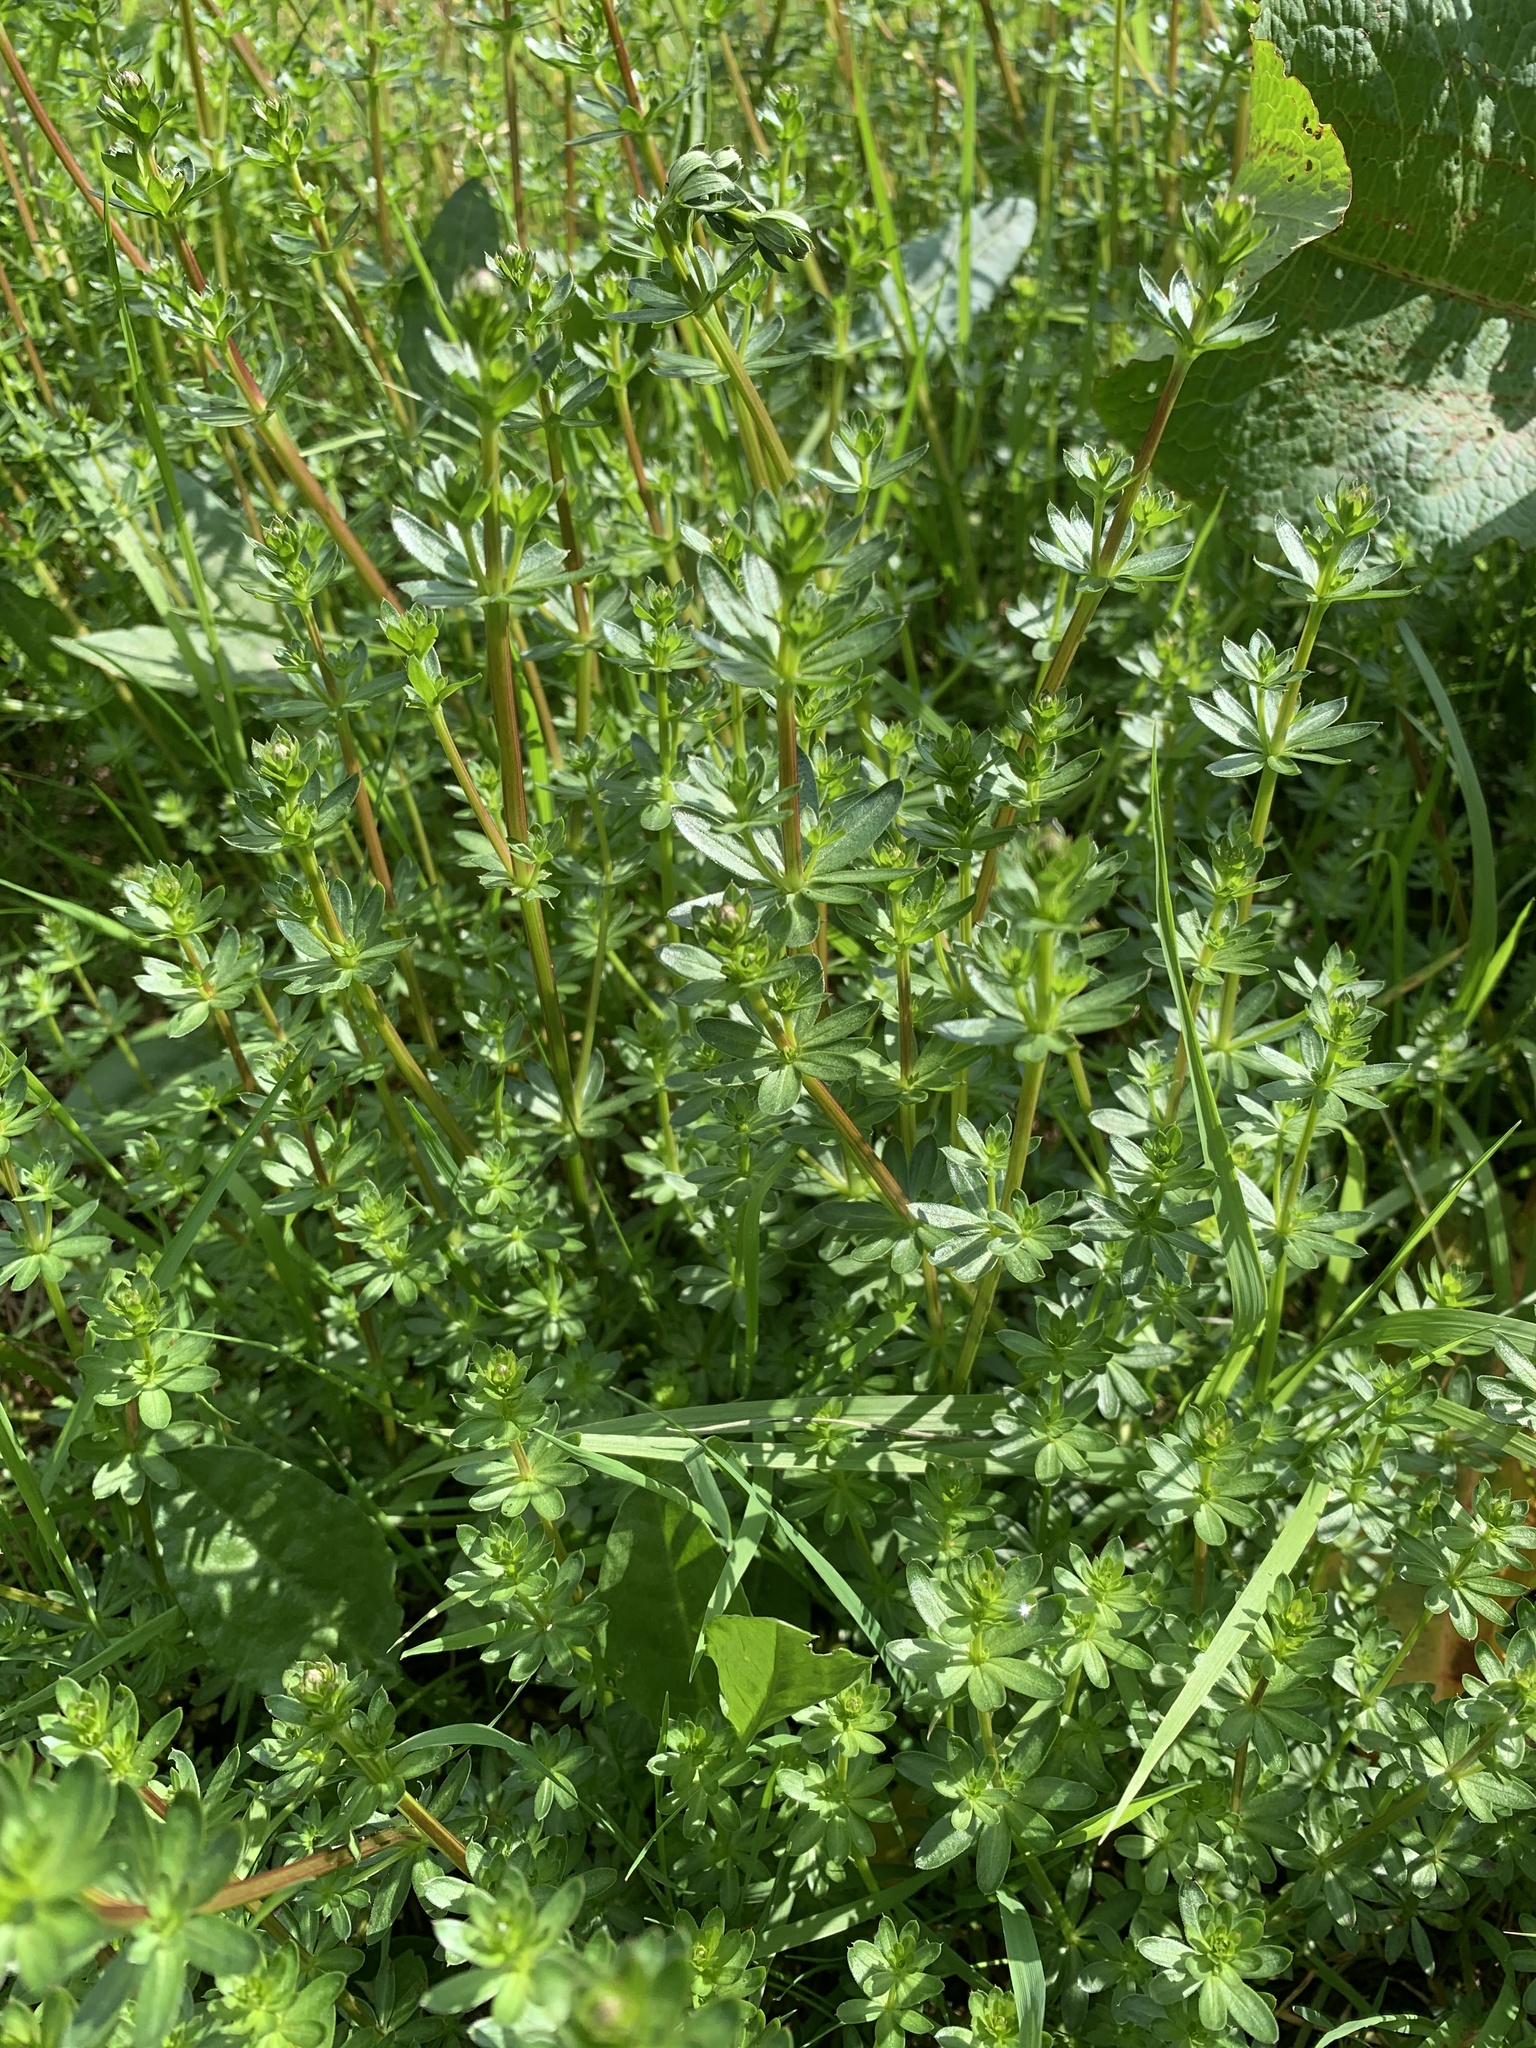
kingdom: Plantae
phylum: Tracheophyta
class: Magnoliopsida
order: Gentianales
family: Rubiaceae
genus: Galium
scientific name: Galium mollugo
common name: Hedge bedstraw
